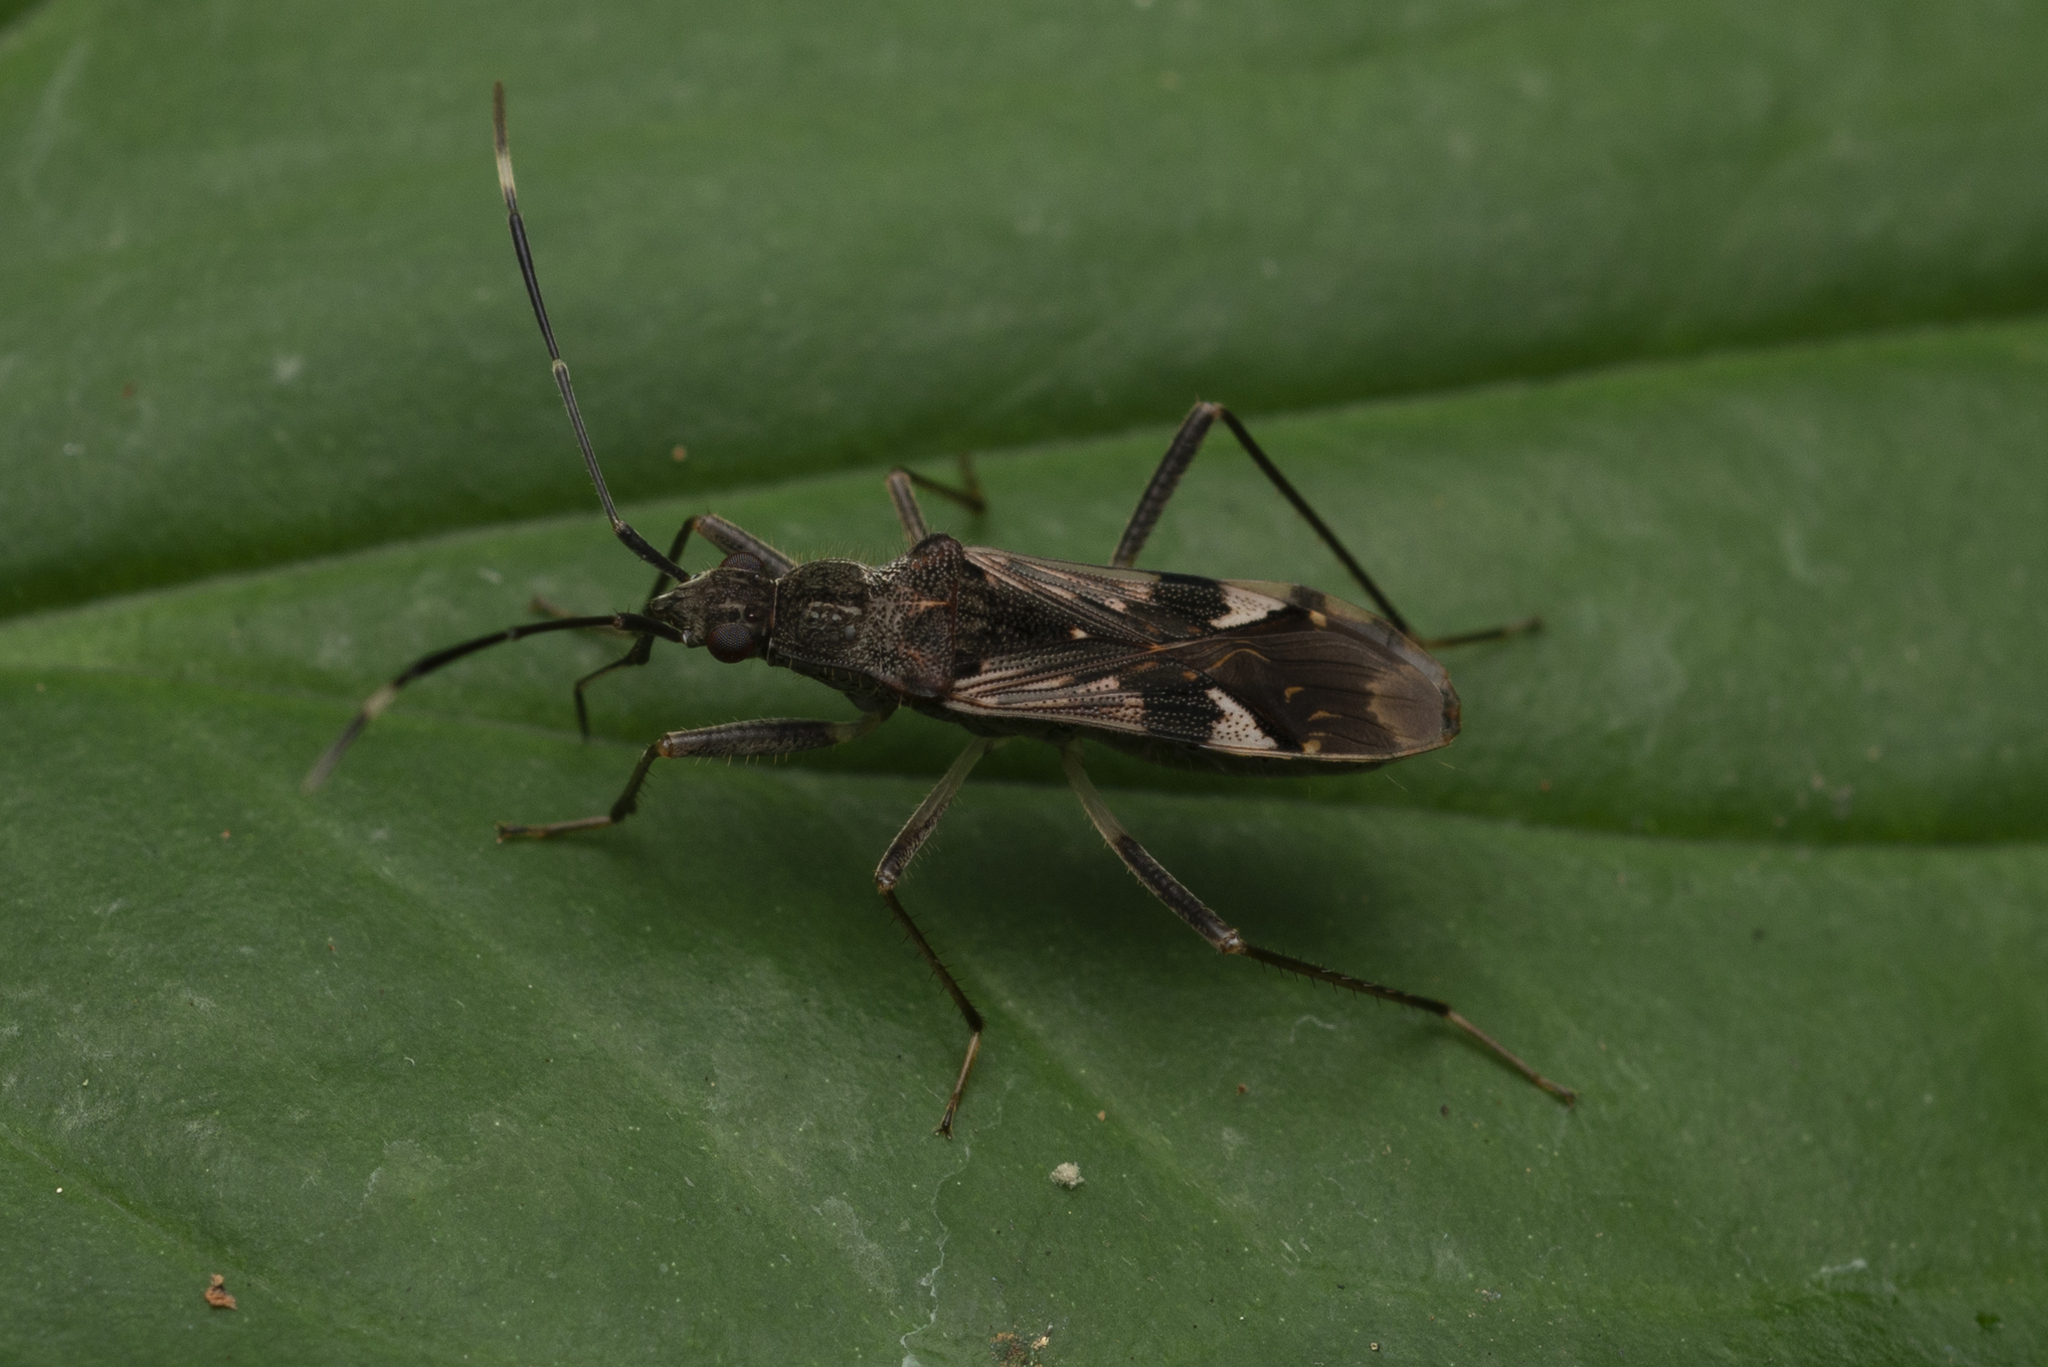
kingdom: Animalia
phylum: Arthropoda
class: Insecta
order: Hemiptera
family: Rhyparochromidae
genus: Metochus
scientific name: Metochus hainanensis
